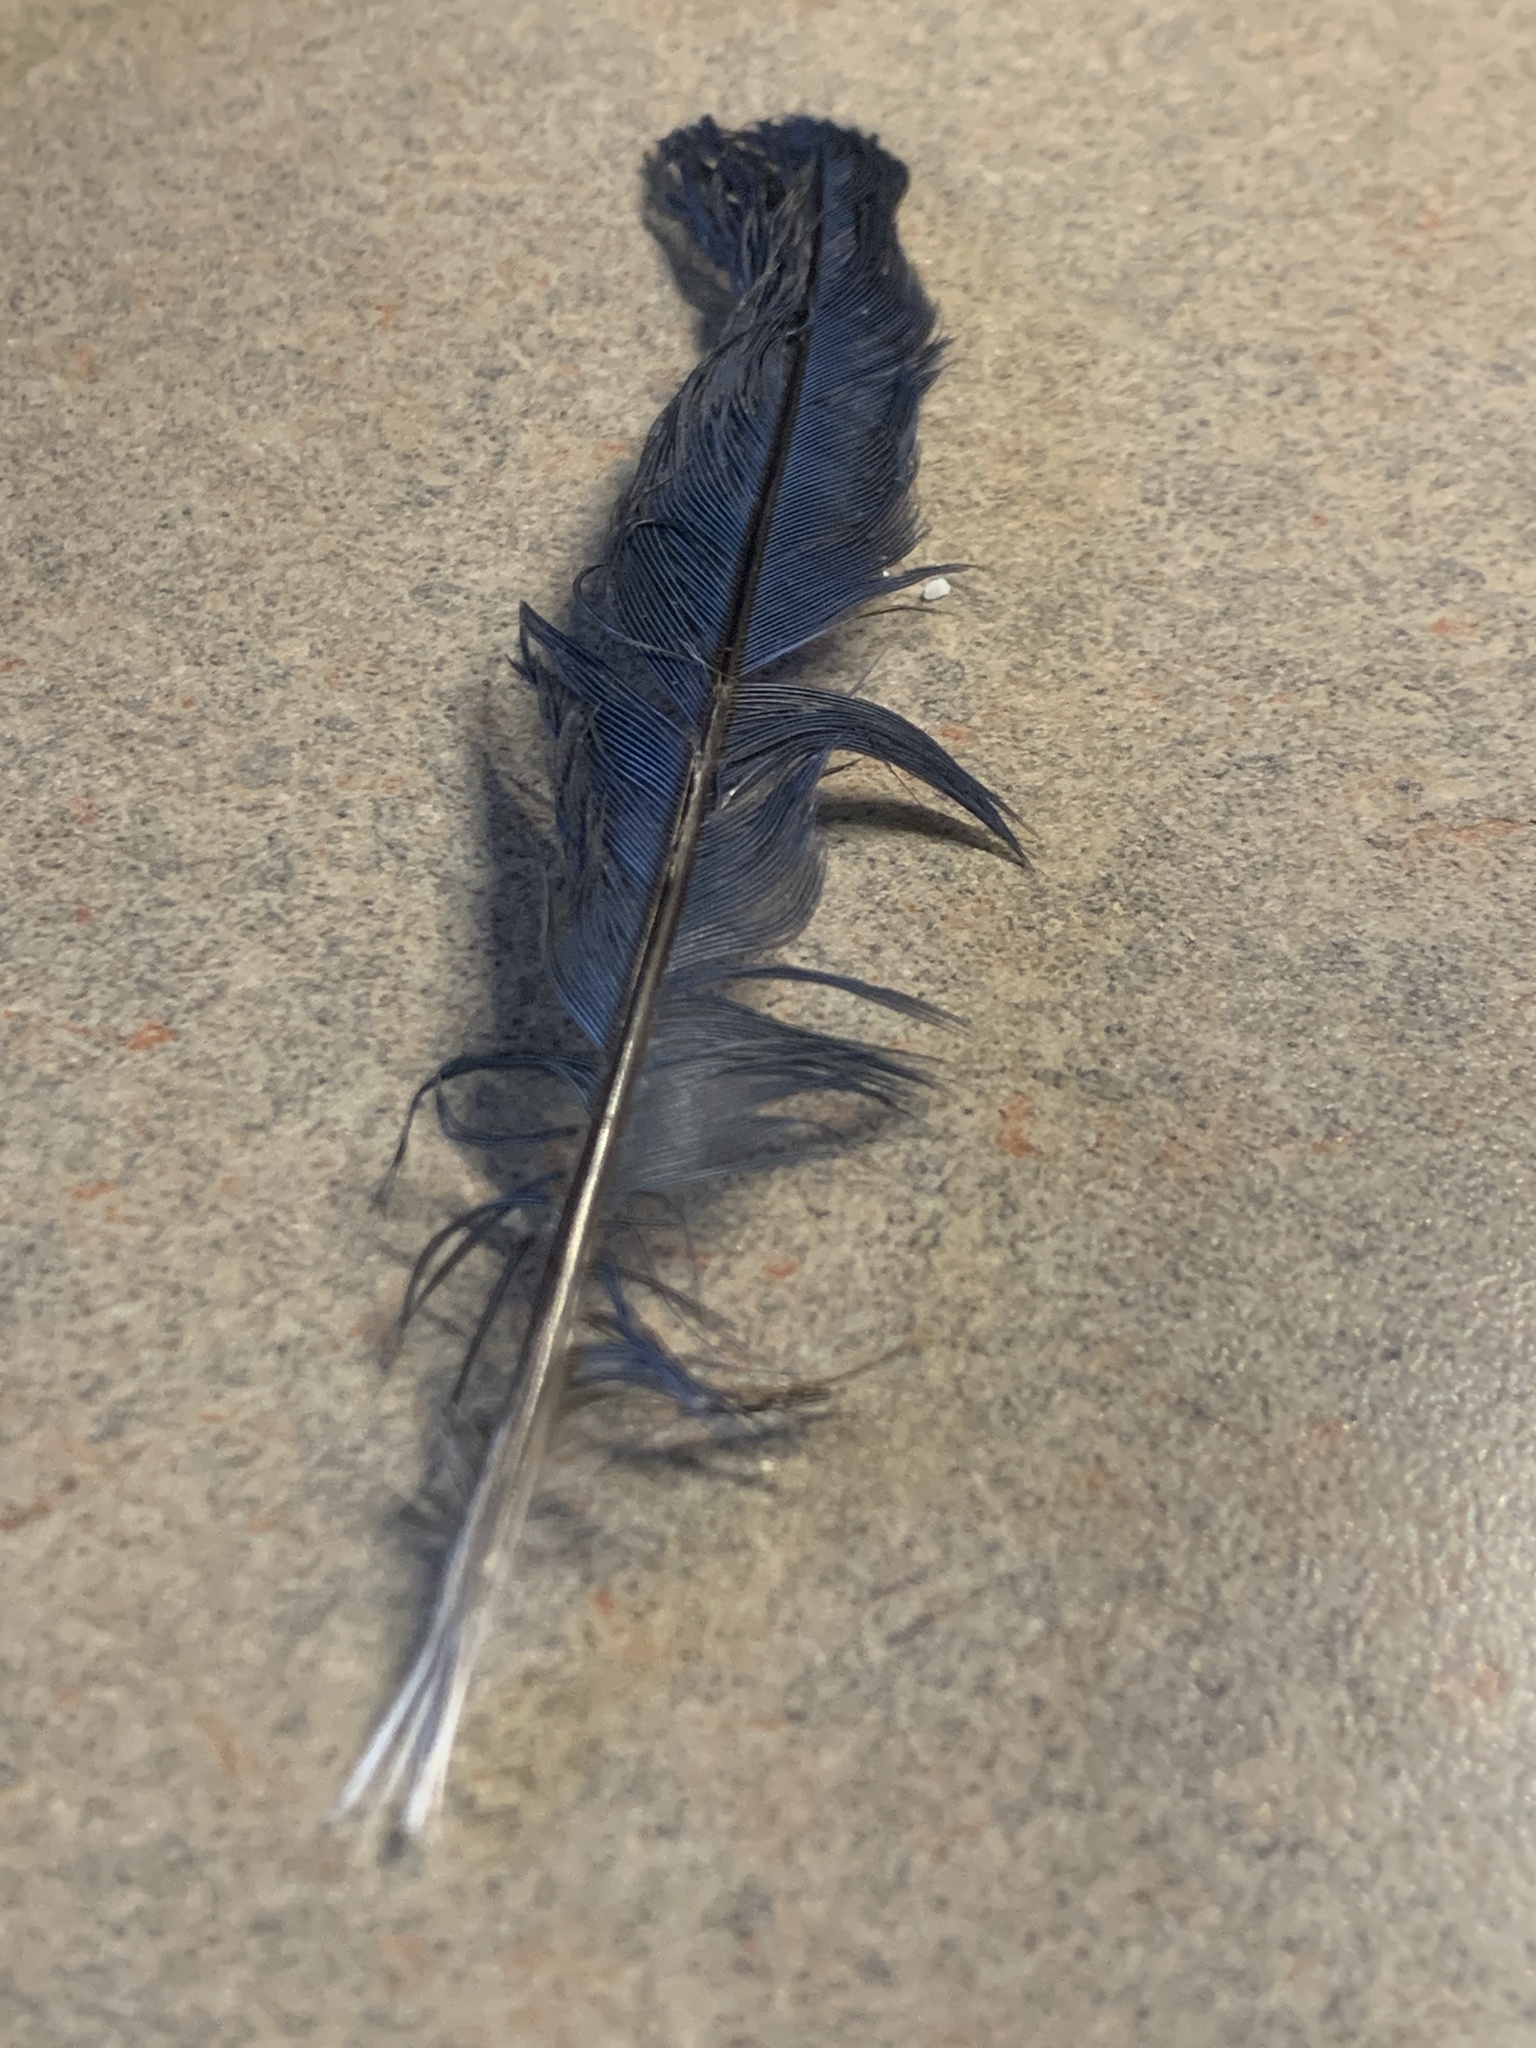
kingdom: Animalia
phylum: Chordata
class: Aves
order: Passeriformes
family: Corvidae
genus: Cyanocitta
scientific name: Cyanocitta stelleri
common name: Steller's jay
